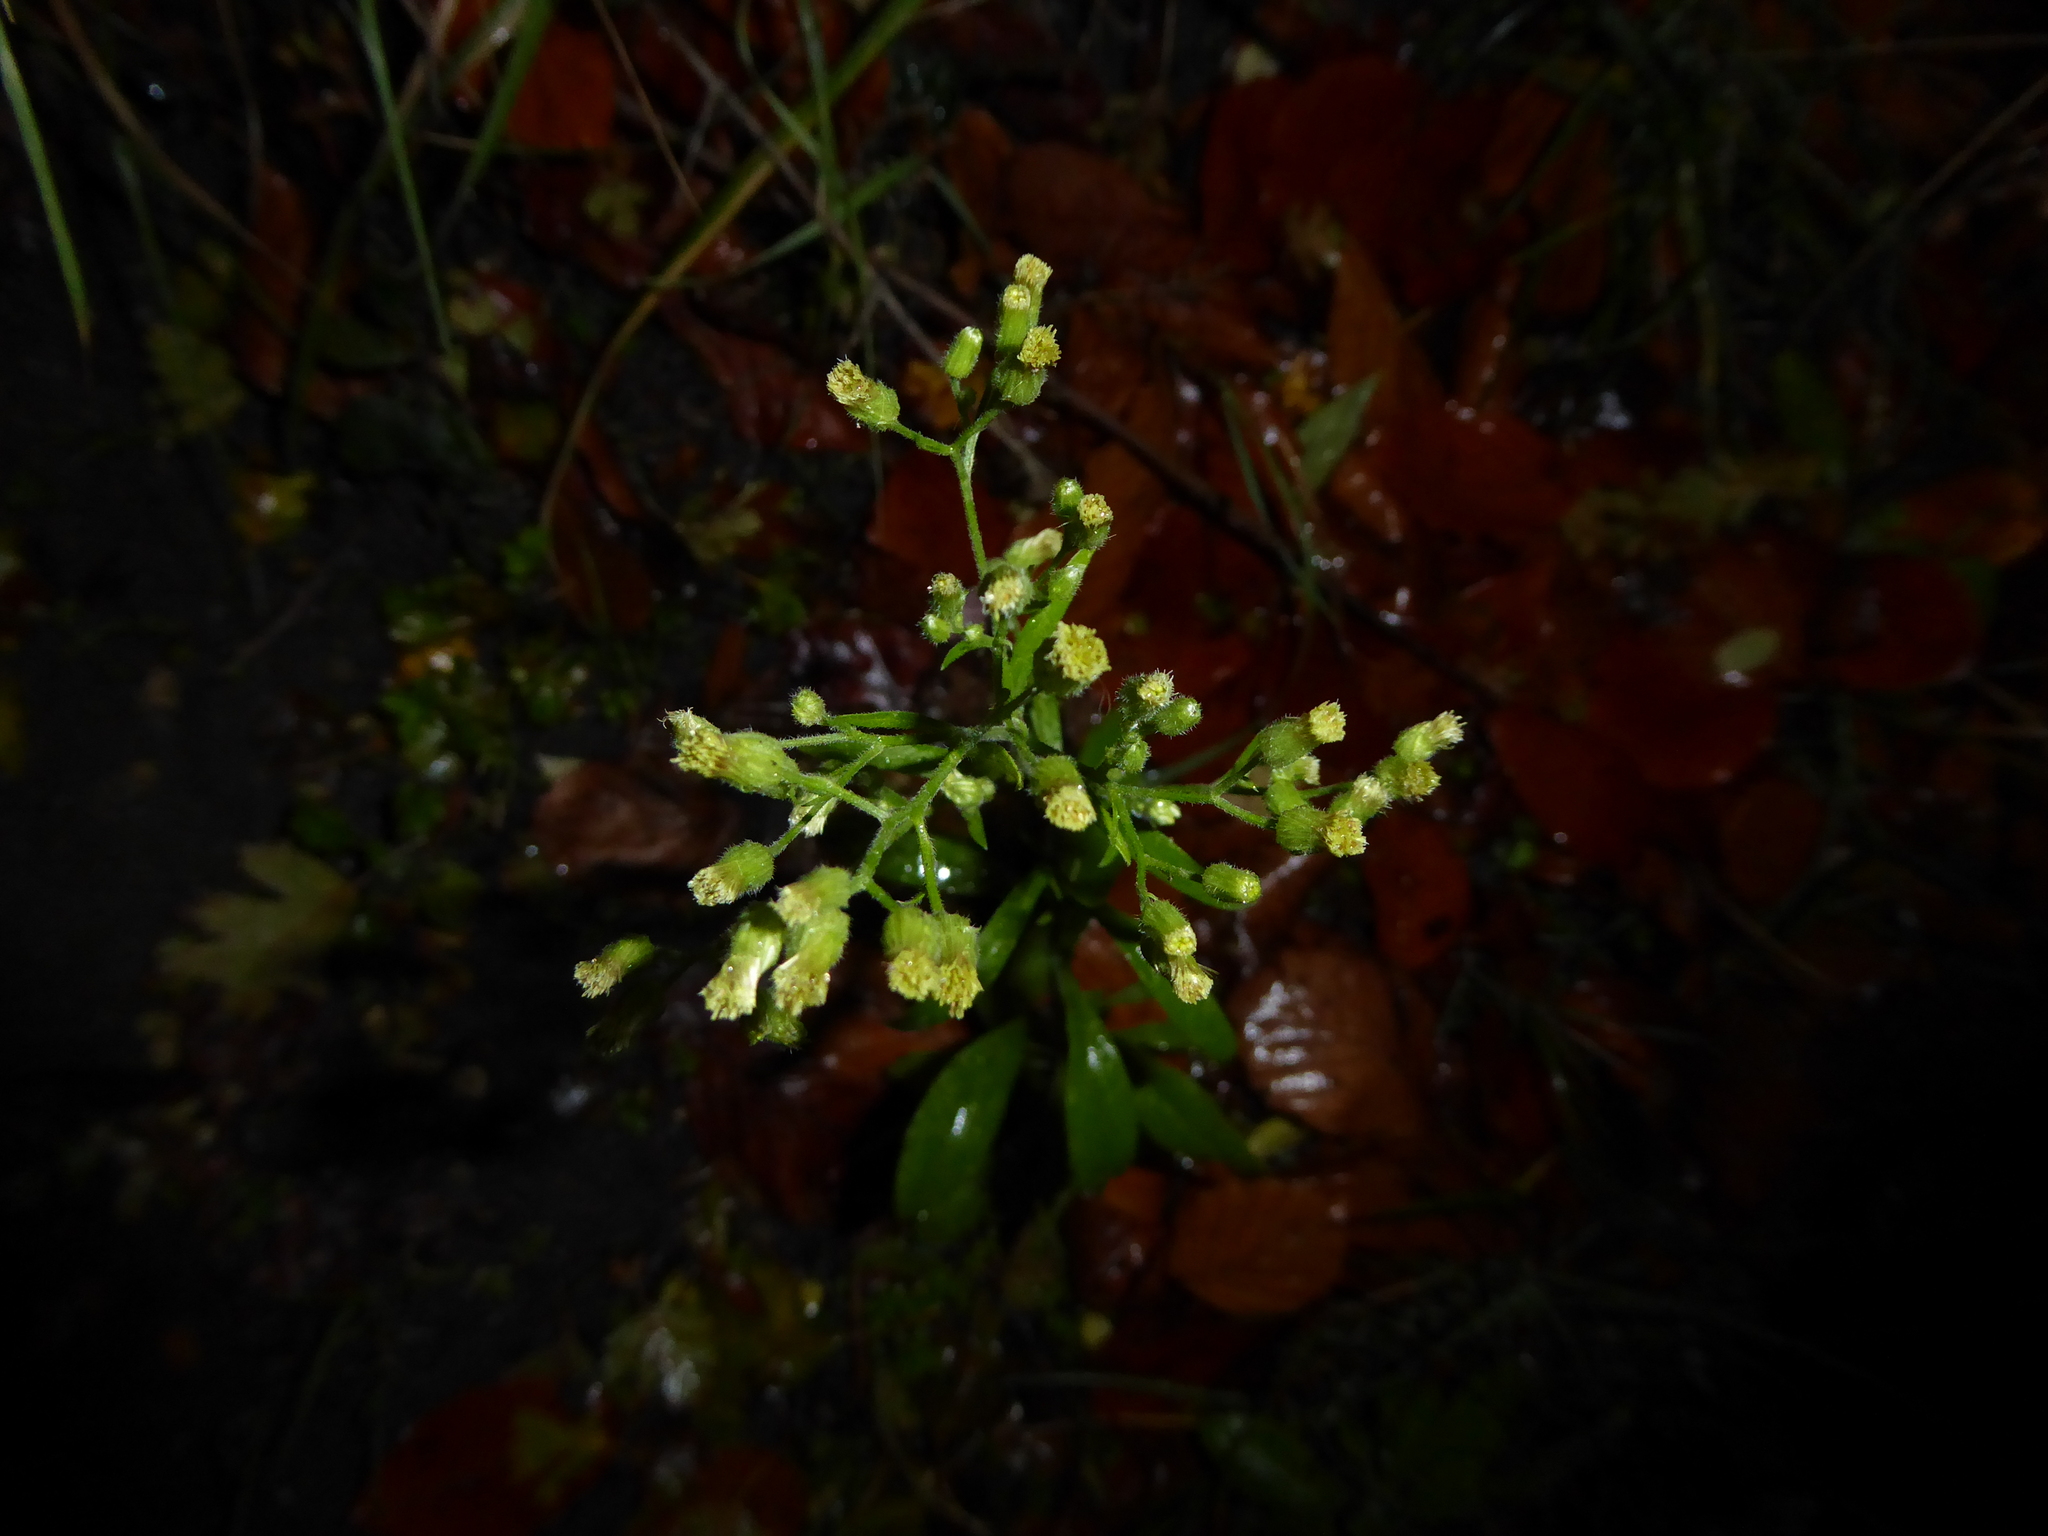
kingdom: Plantae
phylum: Tracheophyta
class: Magnoliopsida
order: Asterales
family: Asteraceae
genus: Erigeron
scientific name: Erigeron sumatrensis
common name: Daisy
